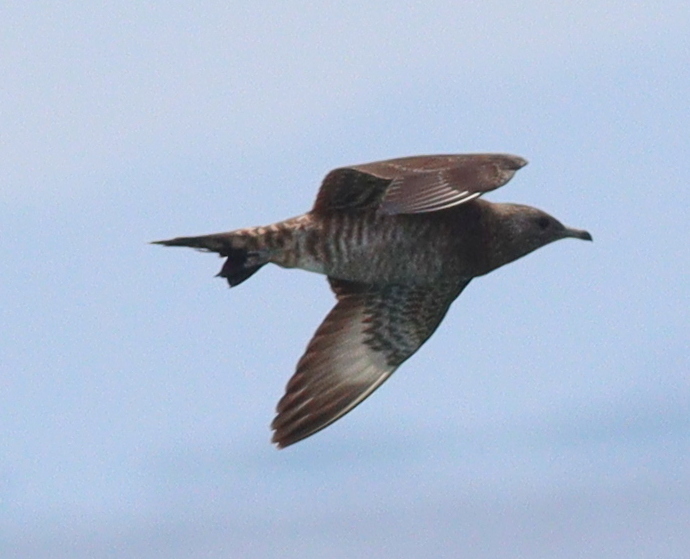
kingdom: Animalia
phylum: Chordata
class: Aves
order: Charadriiformes
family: Stercorariidae
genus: Stercorarius
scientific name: Stercorarius parasiticus
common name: Parasitic jaeger
